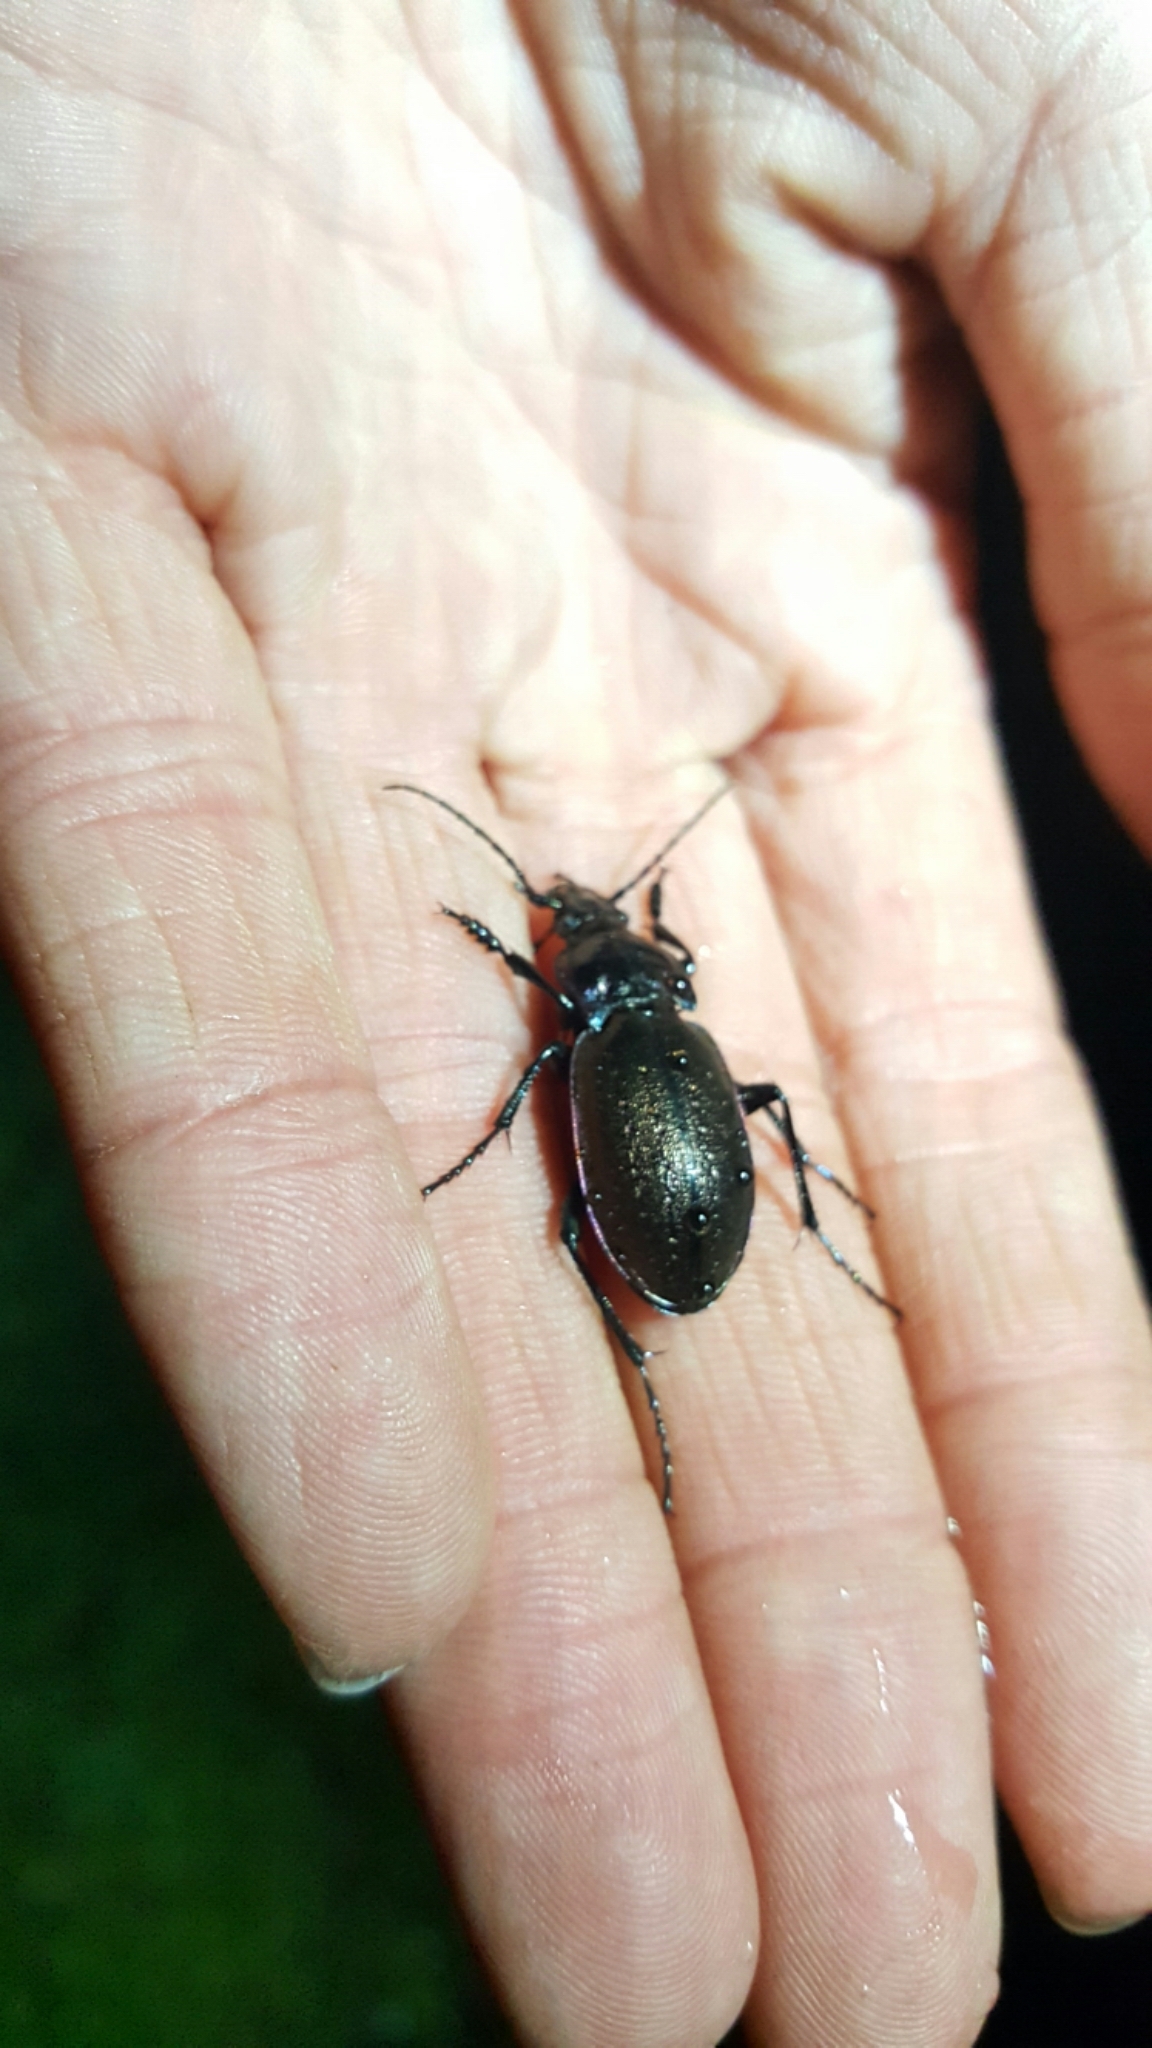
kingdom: Animalia
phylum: Arthropoda
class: Insecta
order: Coleoptera
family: Carabidae
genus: Carabus
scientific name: Carabus nemoralis
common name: European ground beetle
